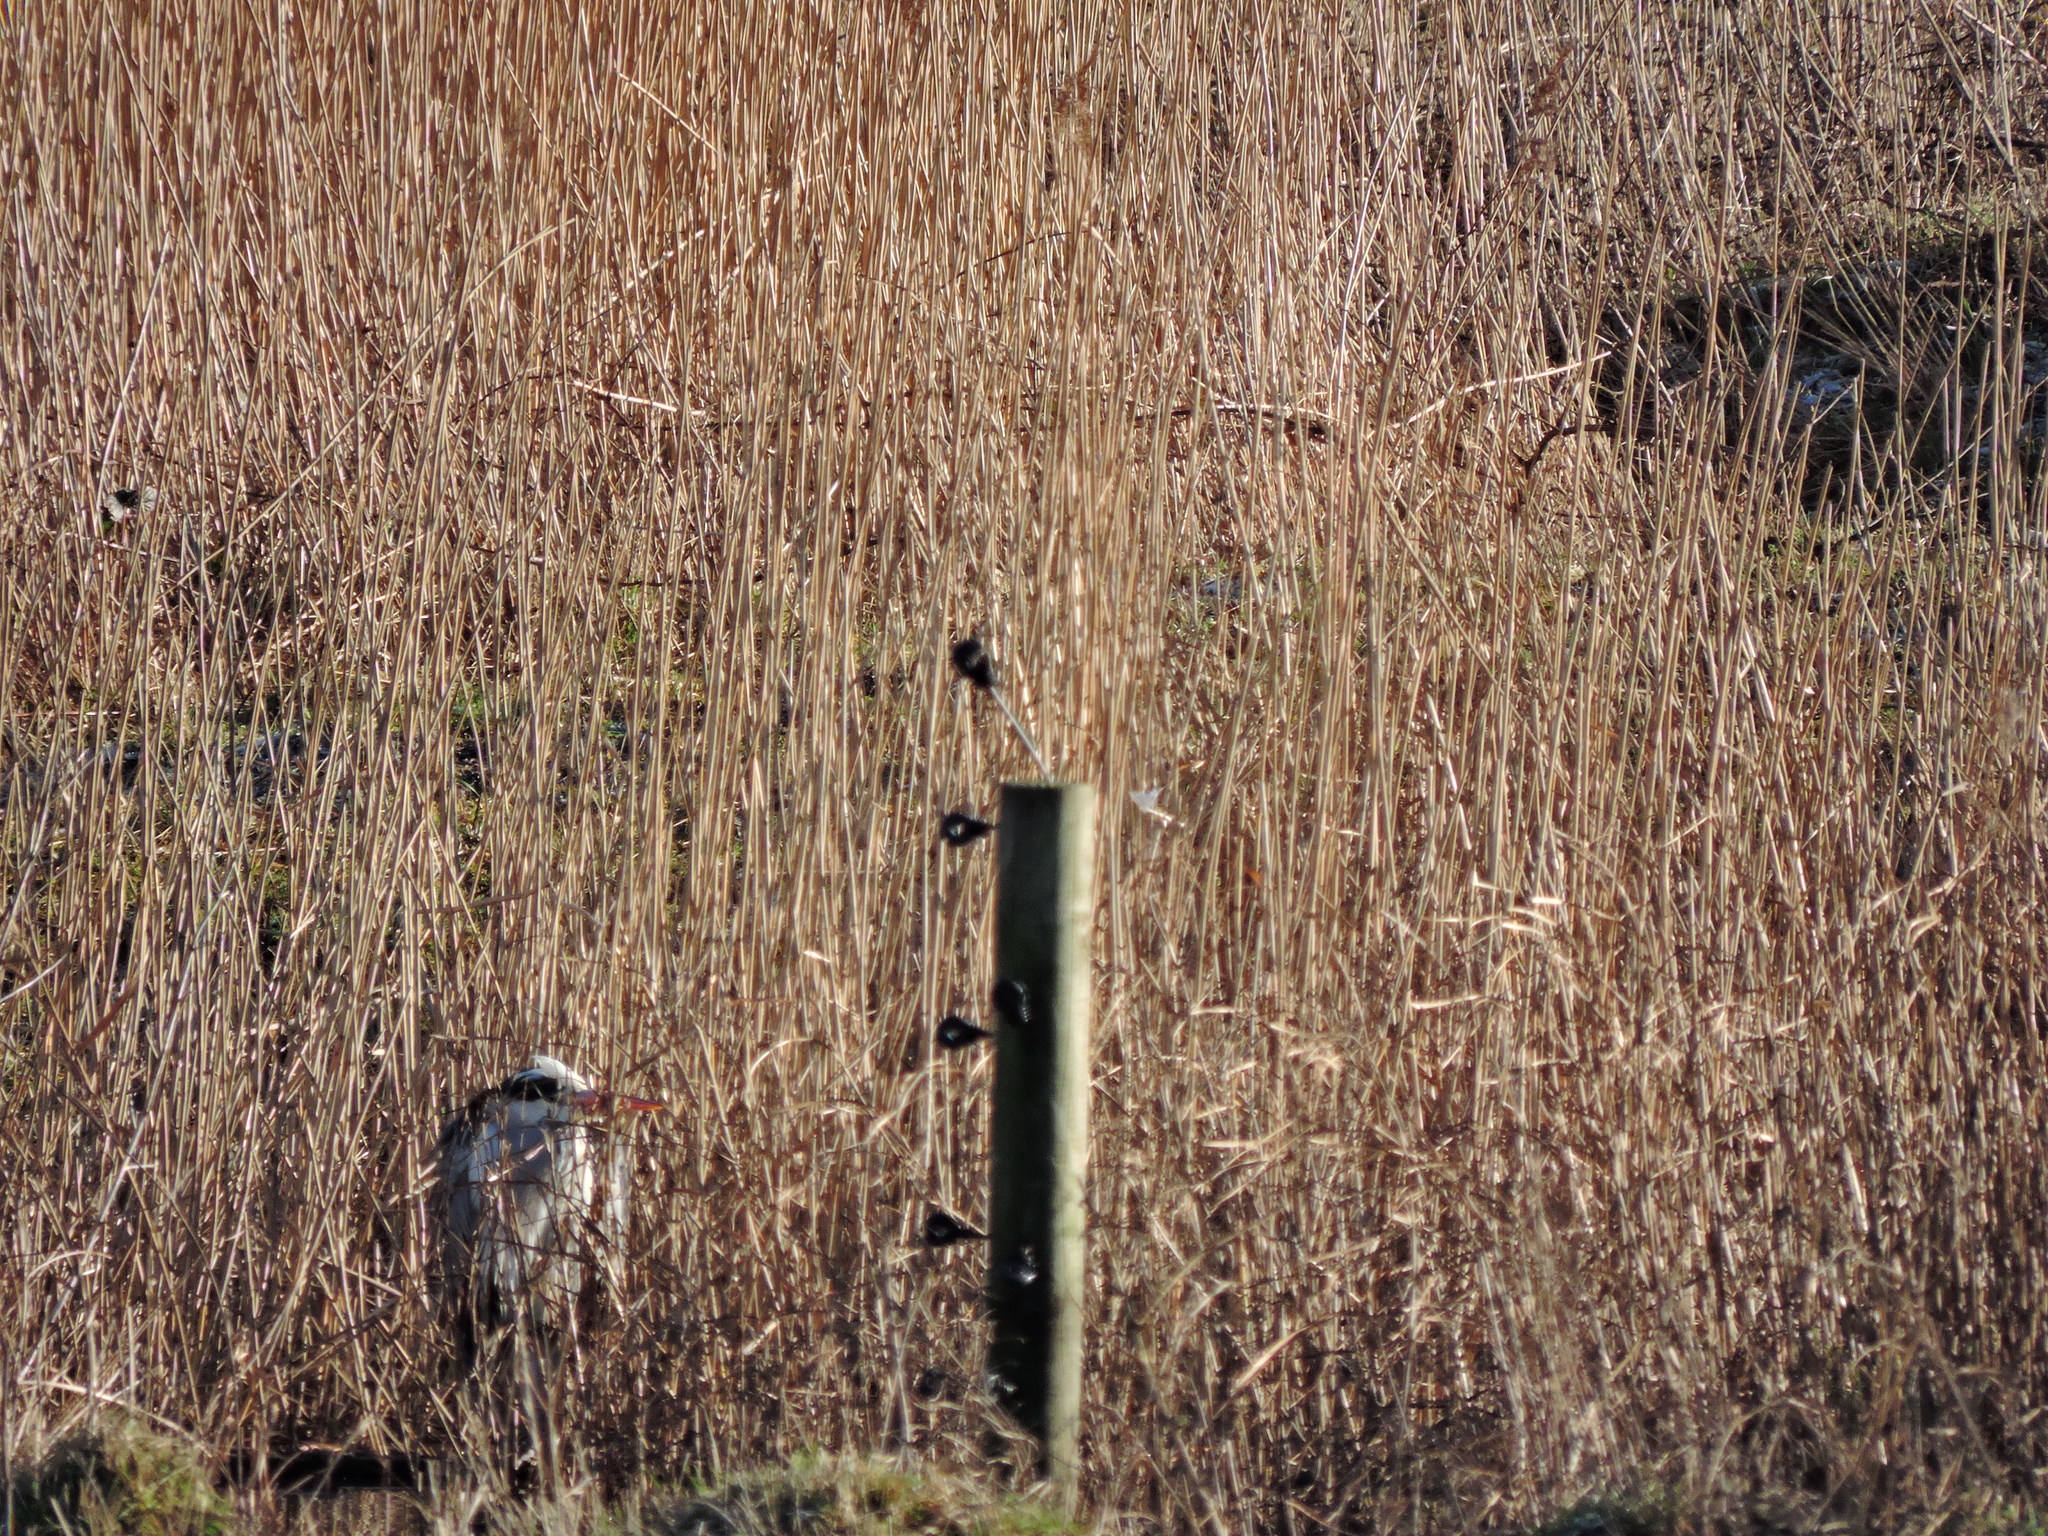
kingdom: Animalia
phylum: Chordata
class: Aves
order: Pelecaniformes
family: Ardeidae
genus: Ardea
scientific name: Ardea cinerea
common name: Grey heron
